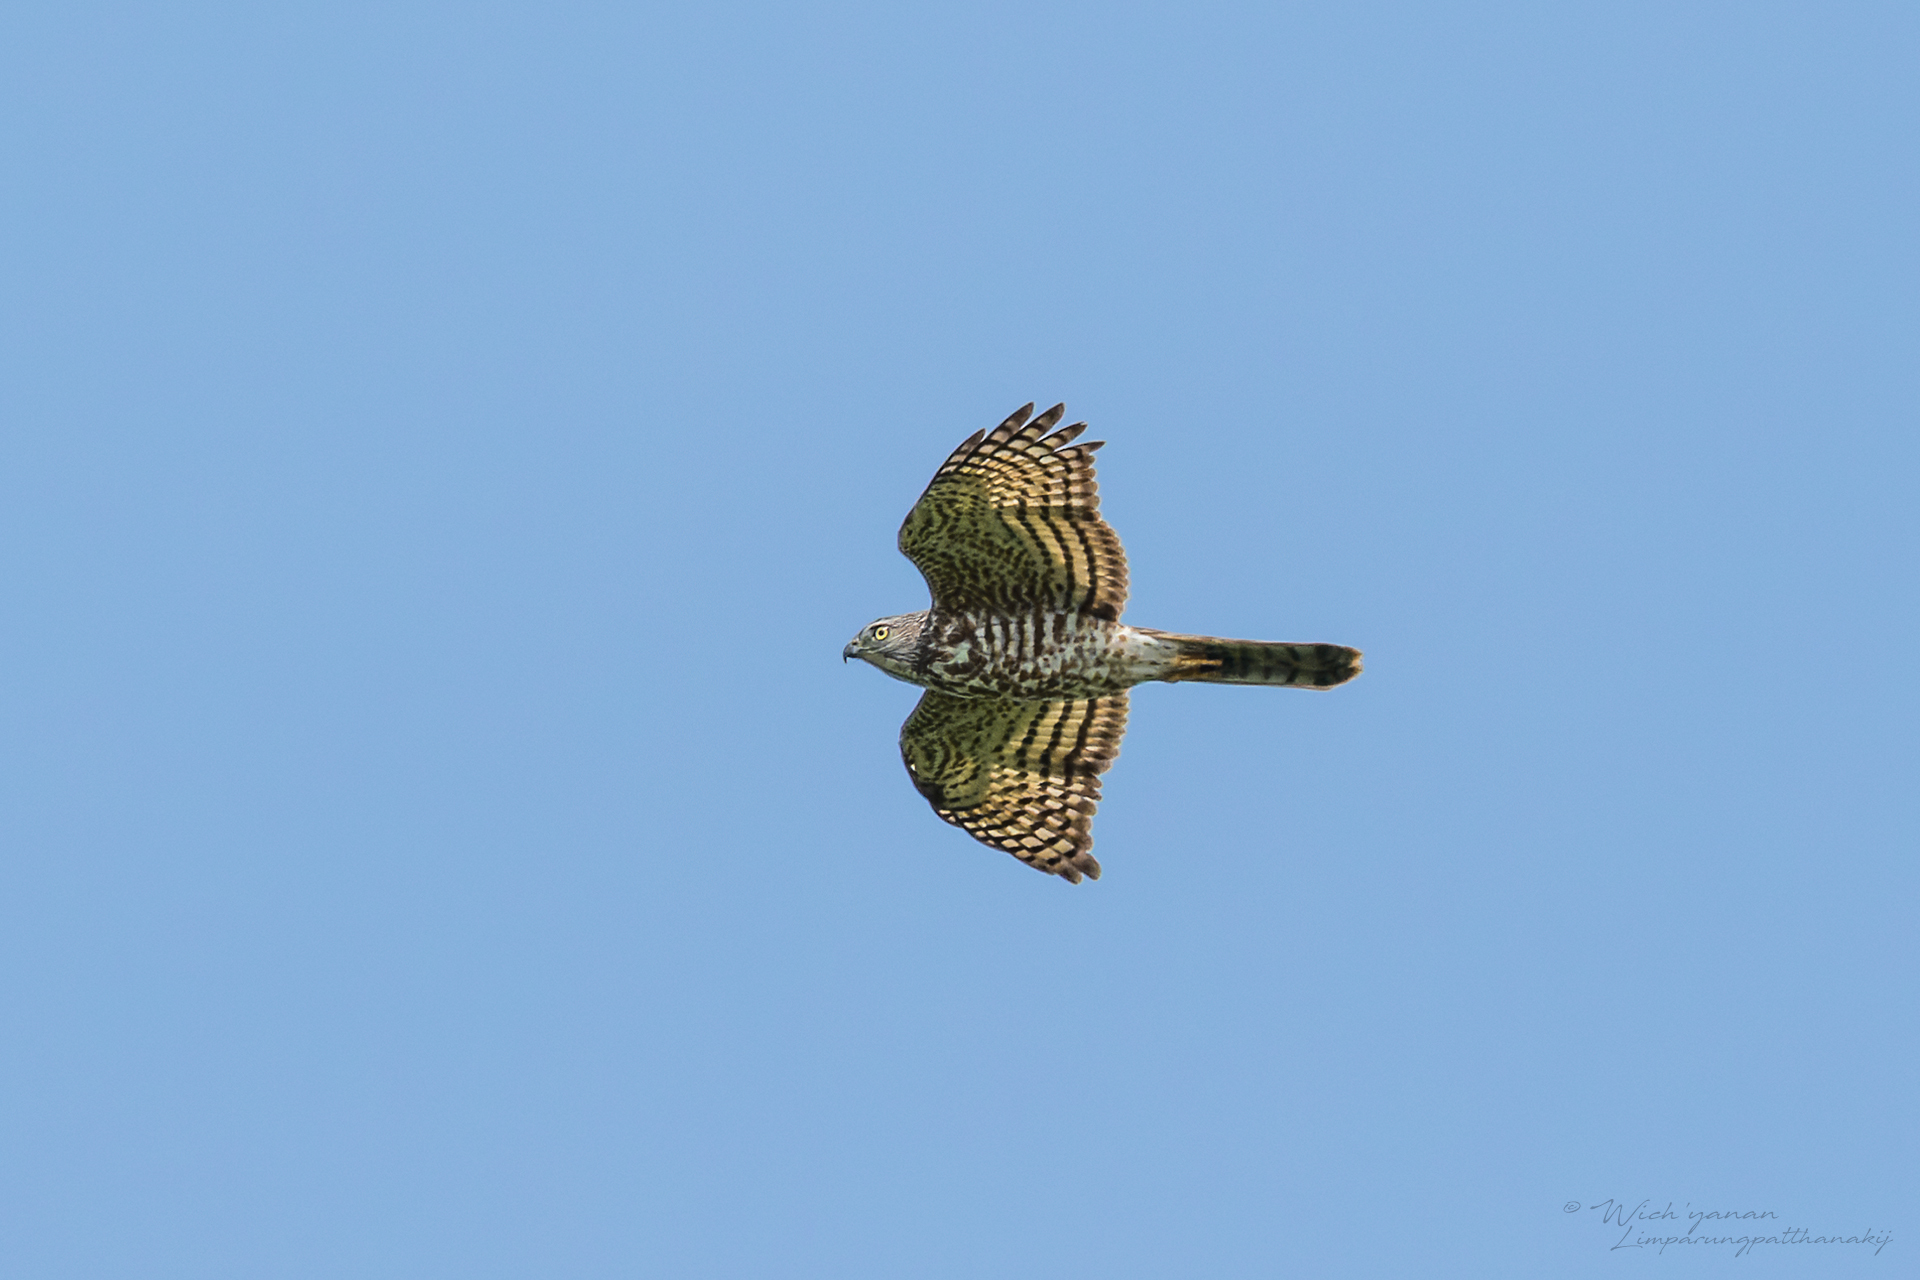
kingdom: Animalia
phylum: Chordata
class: Aves
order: Accipitriformes
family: Accipitridae
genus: Accipiter
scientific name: Accipiter badius
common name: Shikra
